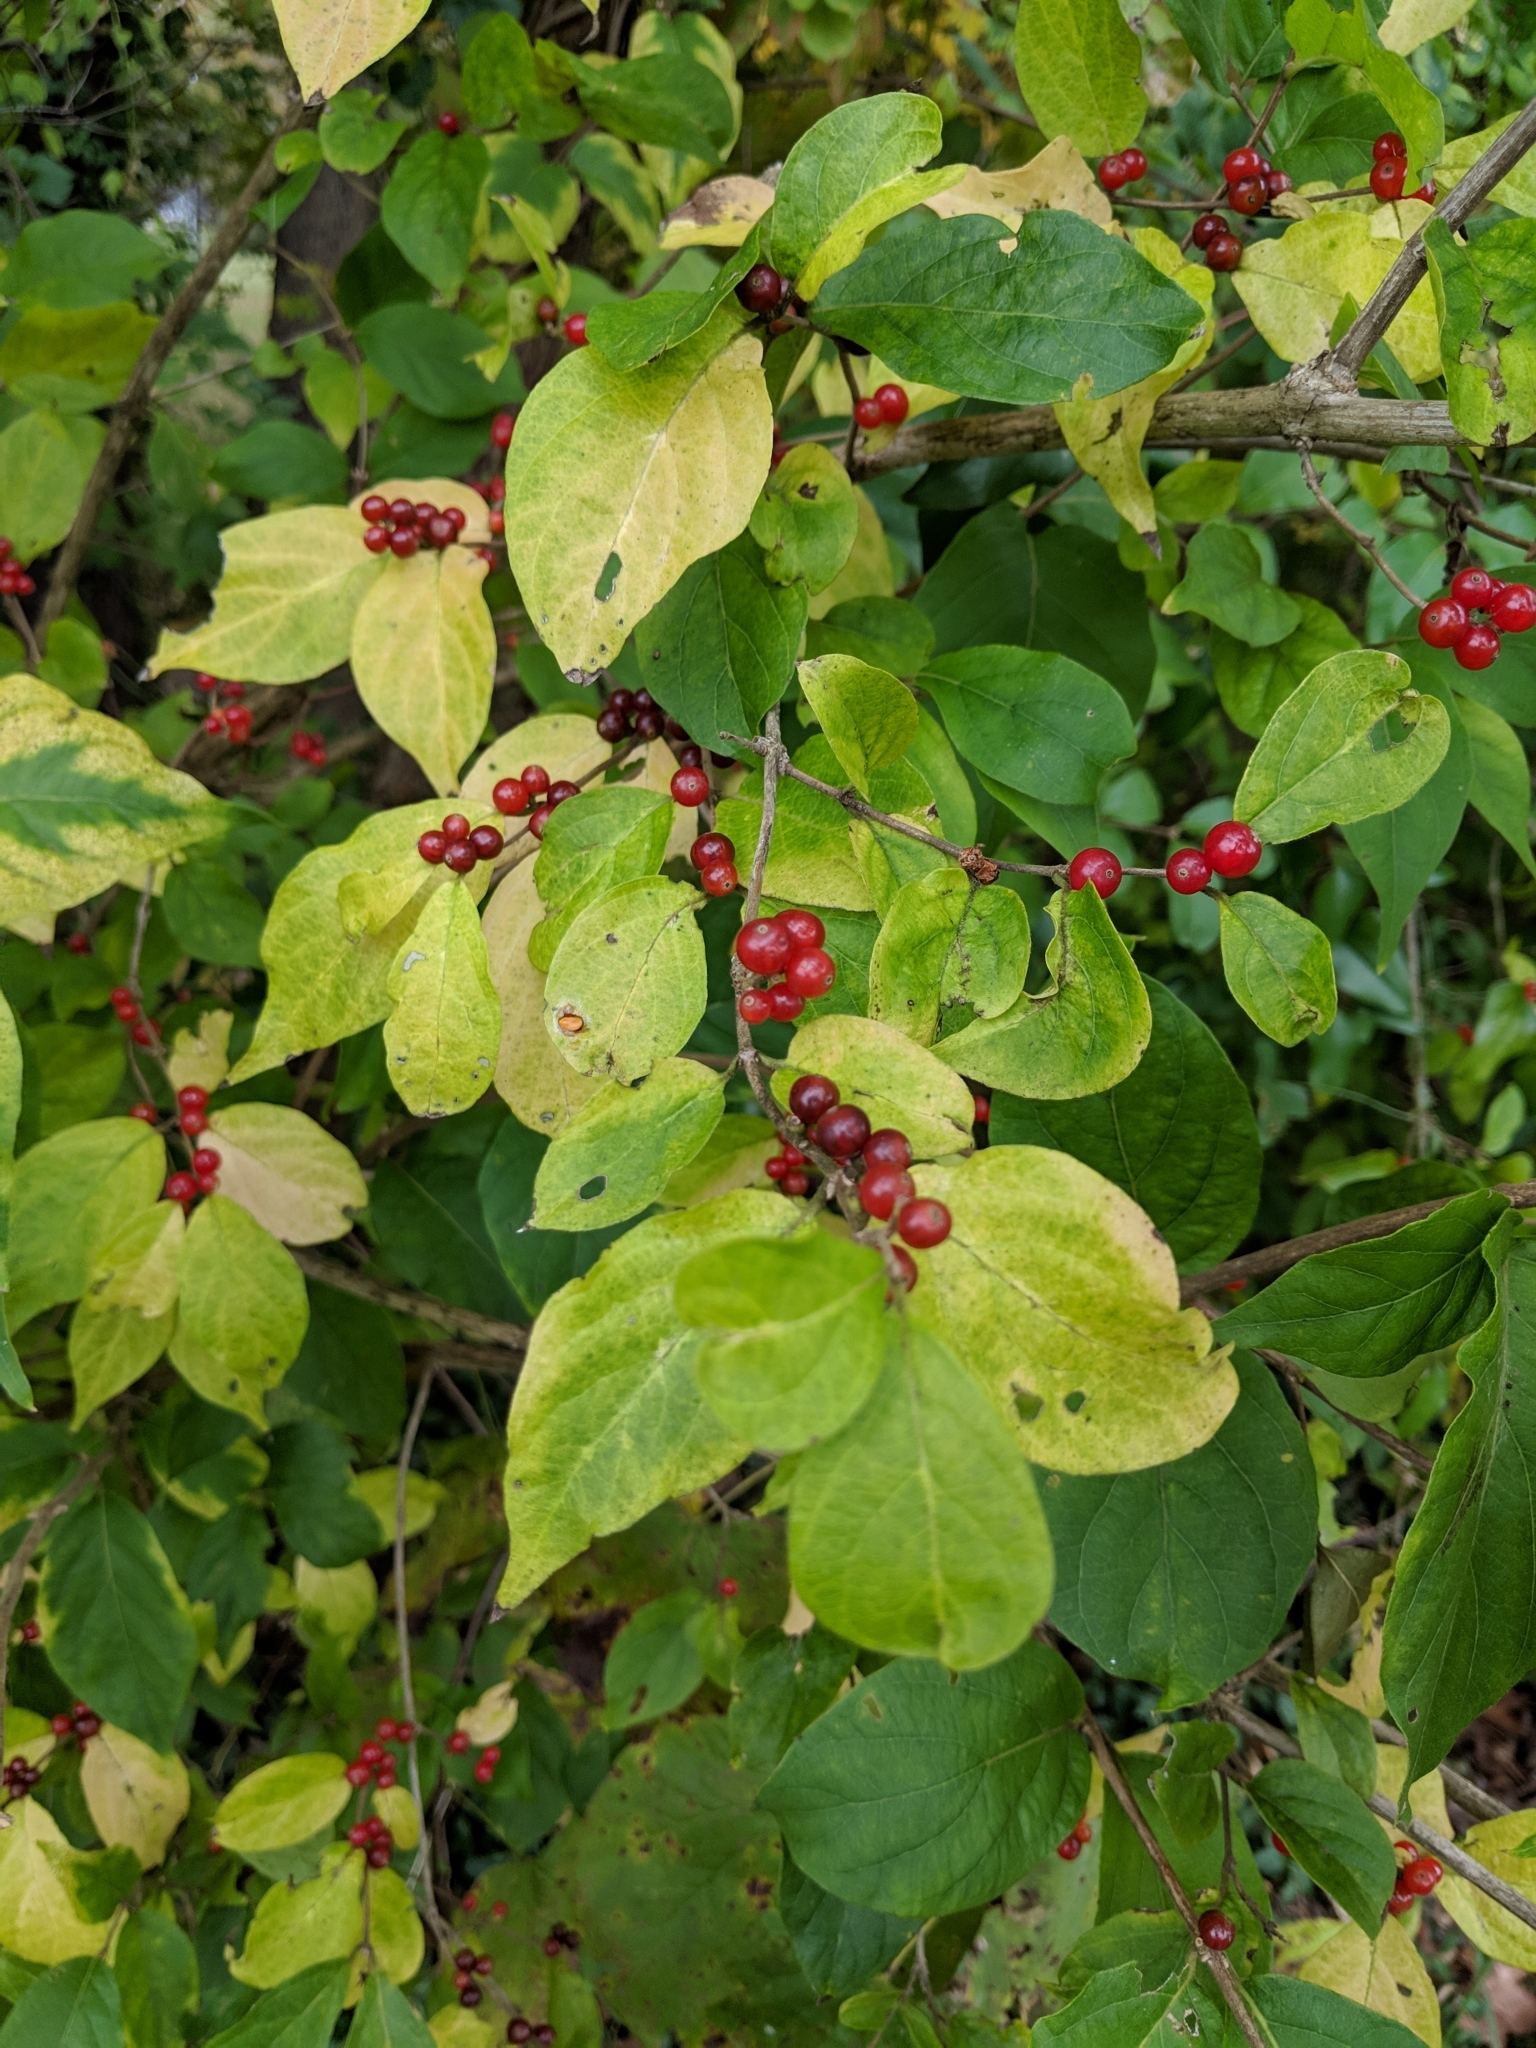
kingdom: Plantae
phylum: Tracheophyta
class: Magnoliopsida
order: Dipsacales
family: Caprifoliaceae
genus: Lonicera
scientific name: Lonicera maackii
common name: Amur honeysuckle
